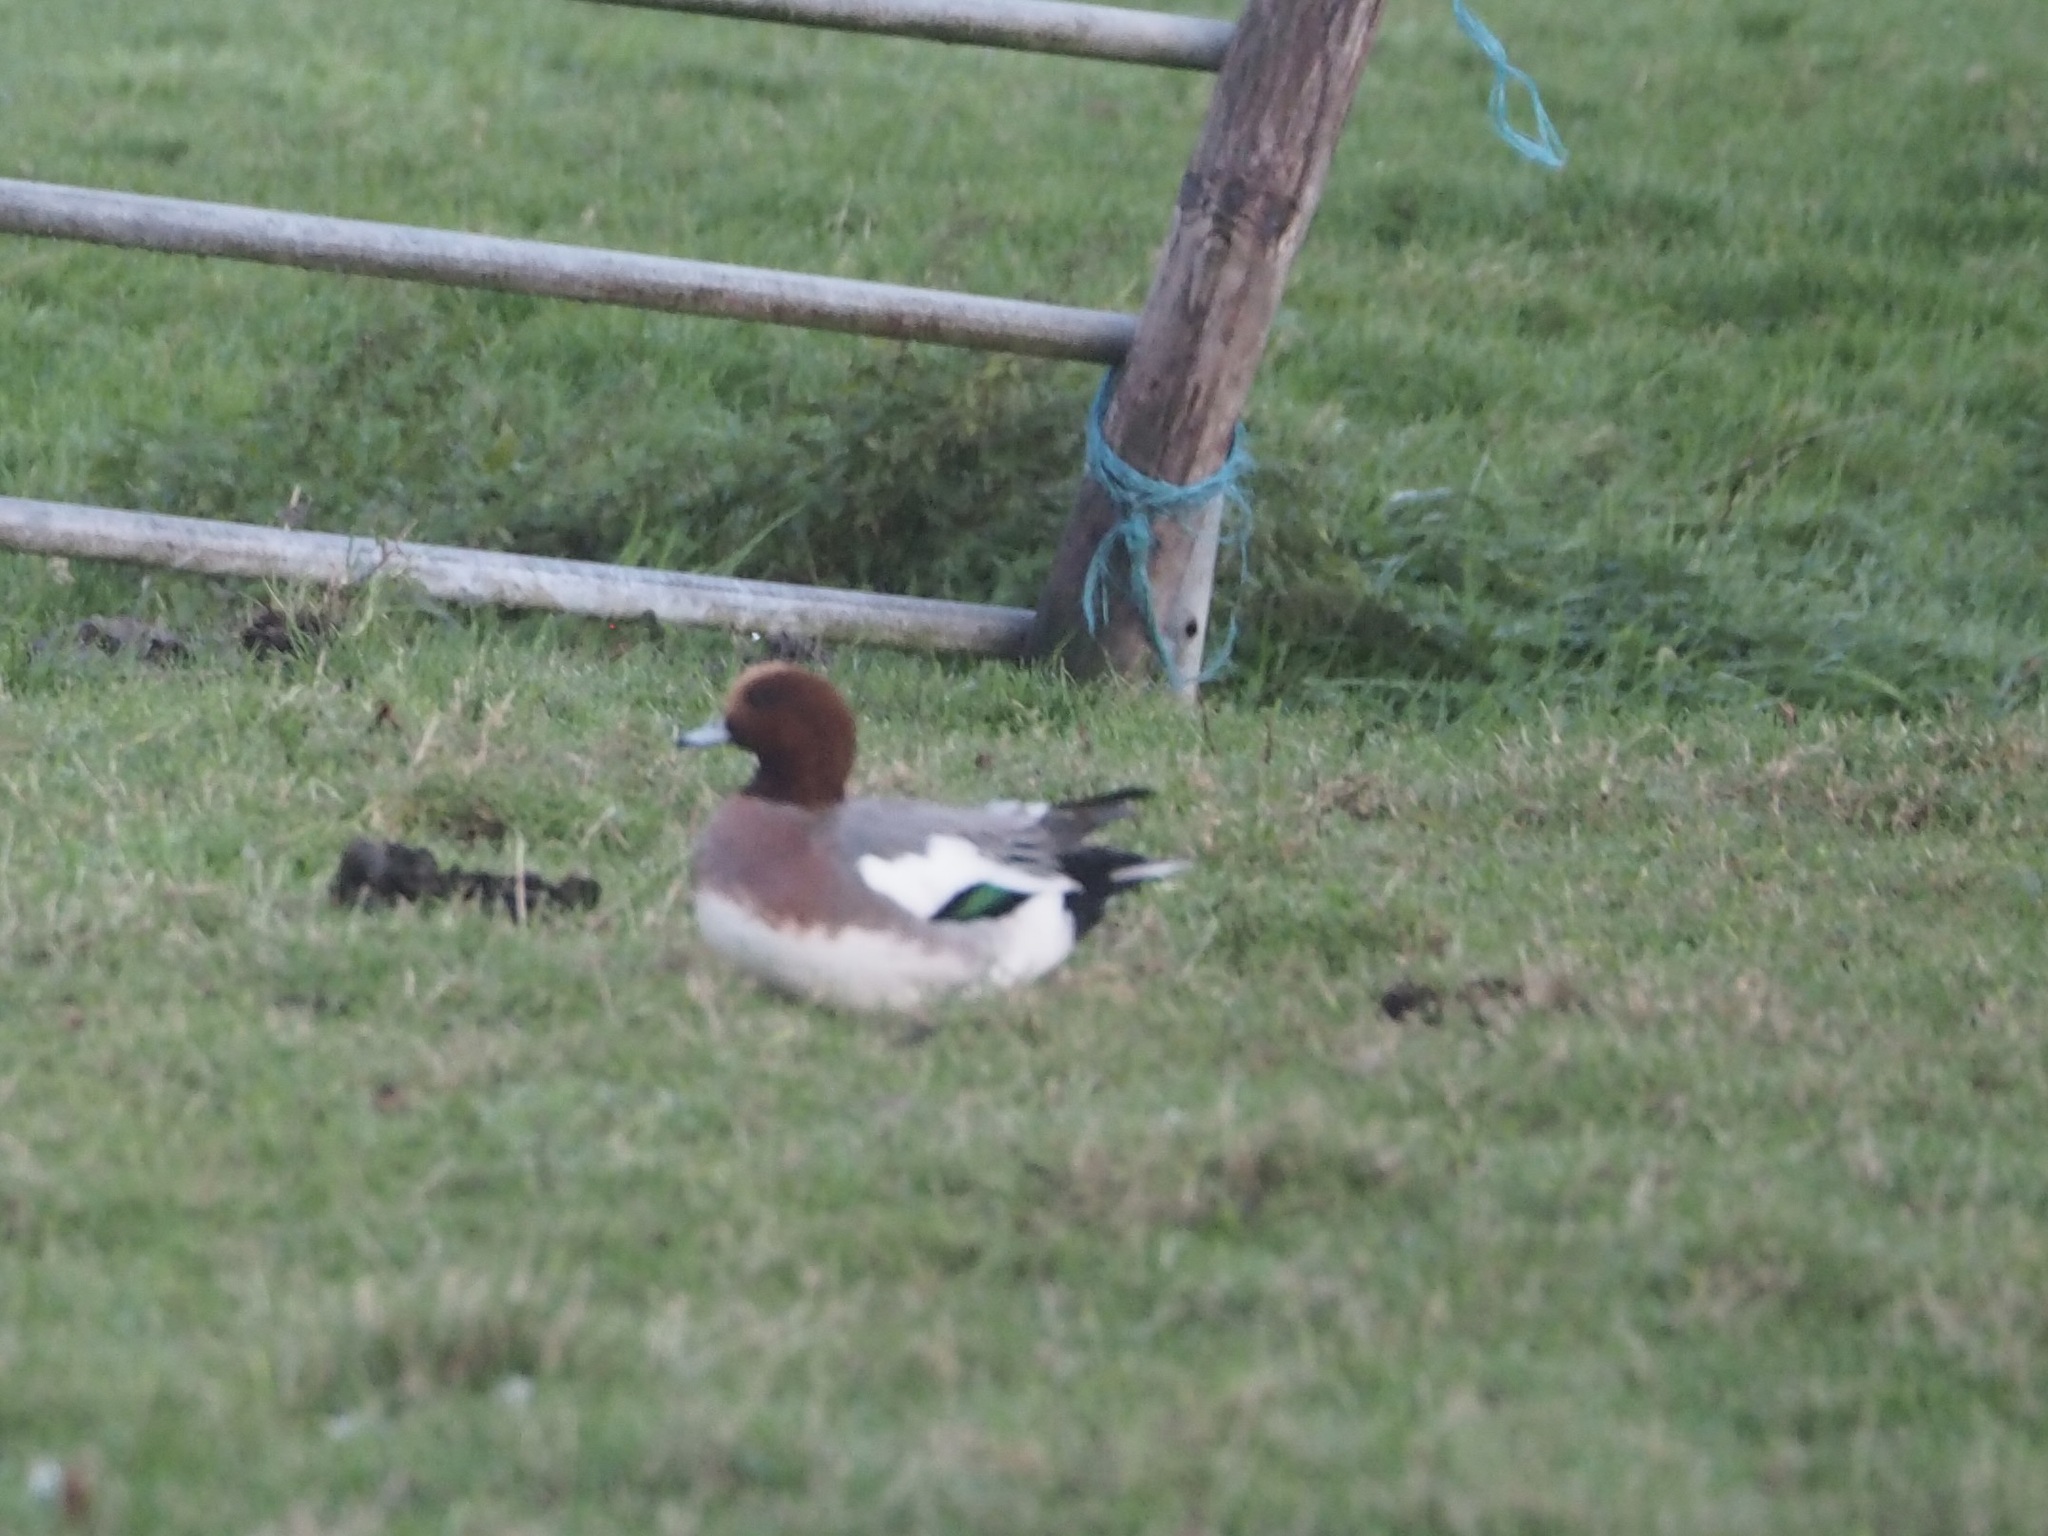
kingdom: Animalia
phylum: Chordata
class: Aves
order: Anseriformes
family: Anatidae
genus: Mareca
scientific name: Mareca penelope
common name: Eurasian wigeon
